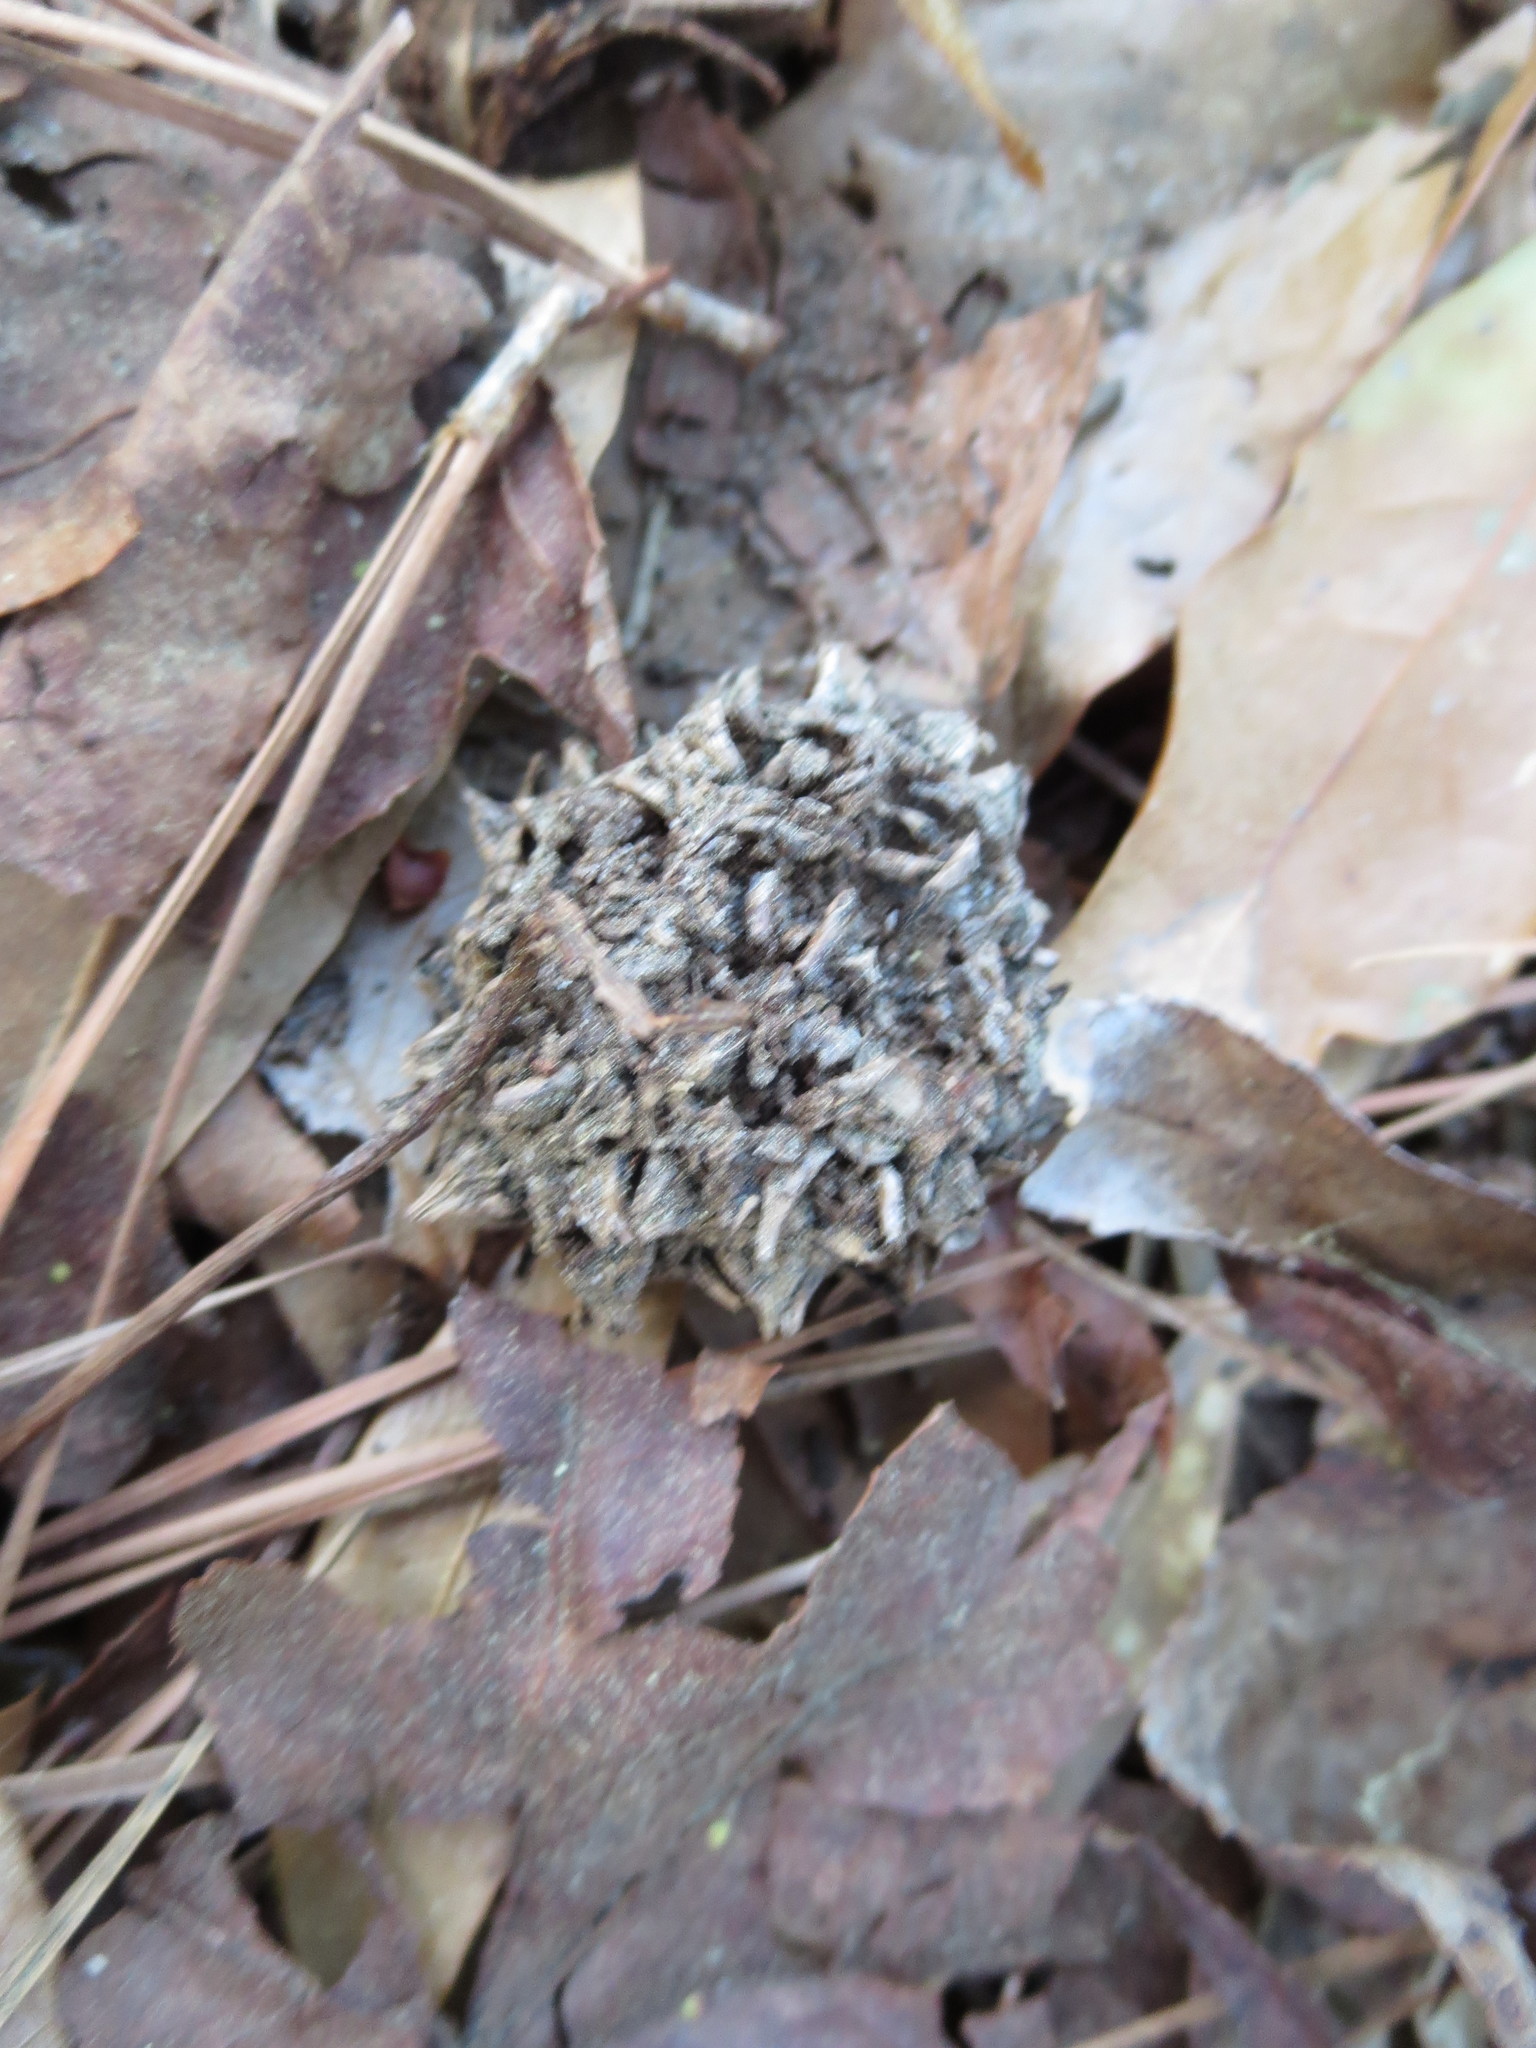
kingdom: Plantae
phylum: Tracheophyta
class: Magnoliopsida
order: Saxifragales
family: Altingiaceae
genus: Liquidambar
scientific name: Liquidambar styraciflua
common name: Sweet gum
